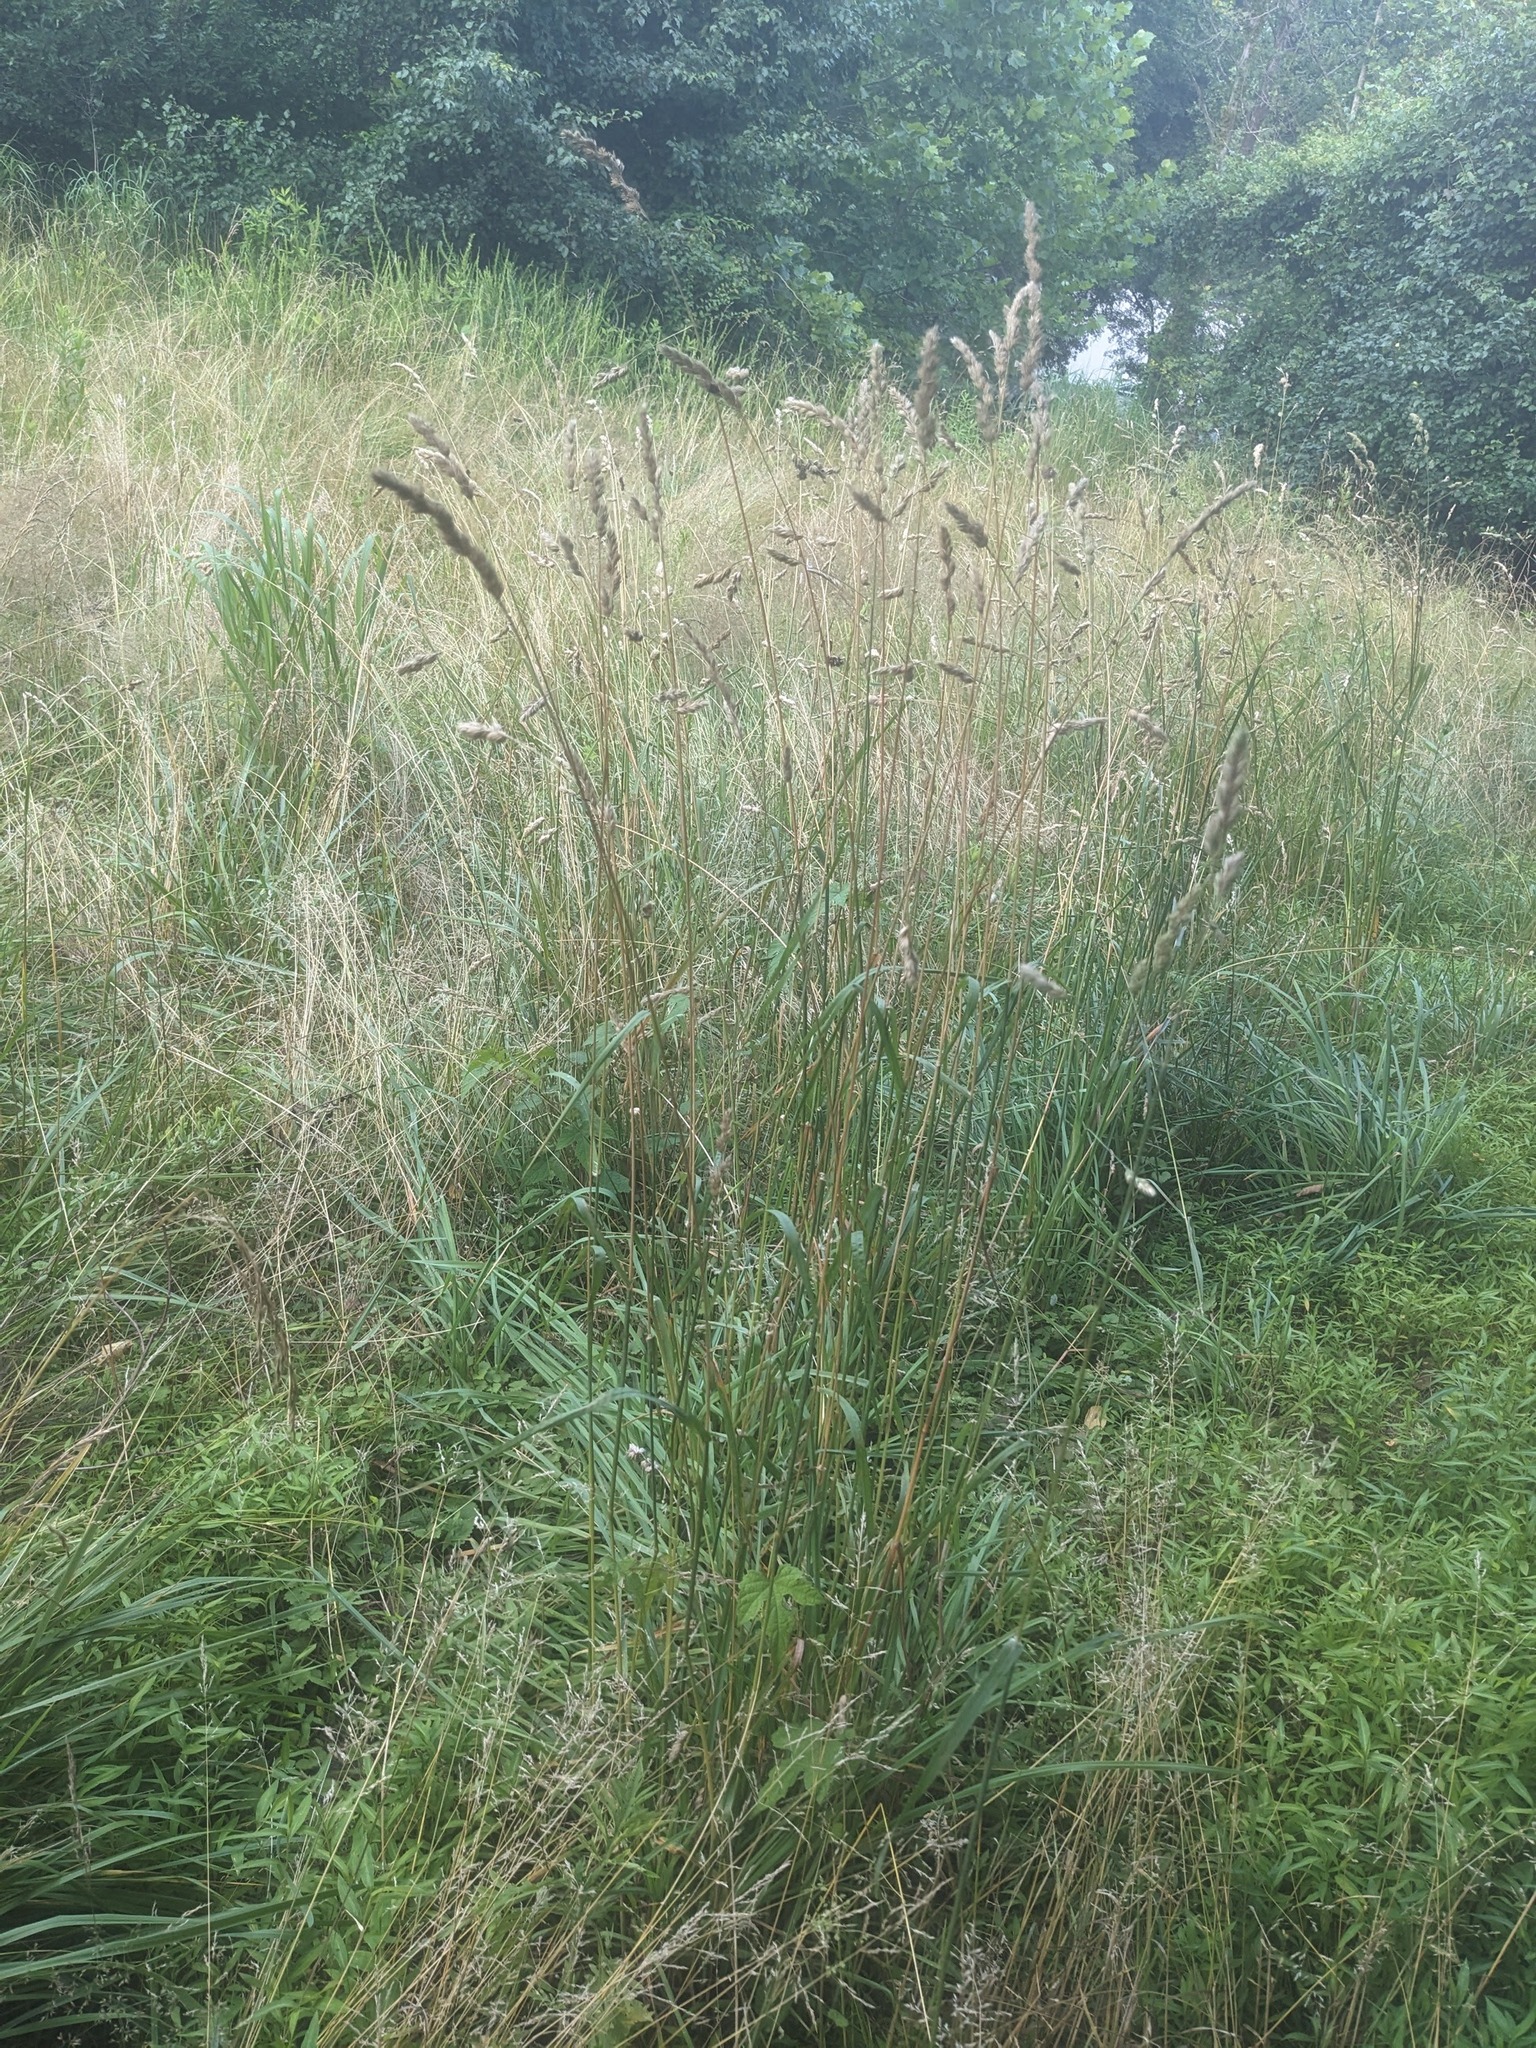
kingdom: Plantae
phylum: Tracheophyta
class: Liliopsida
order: Poales
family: Poaceae
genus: Dactylis
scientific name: Dactylis glomerata
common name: Orchardgrass
